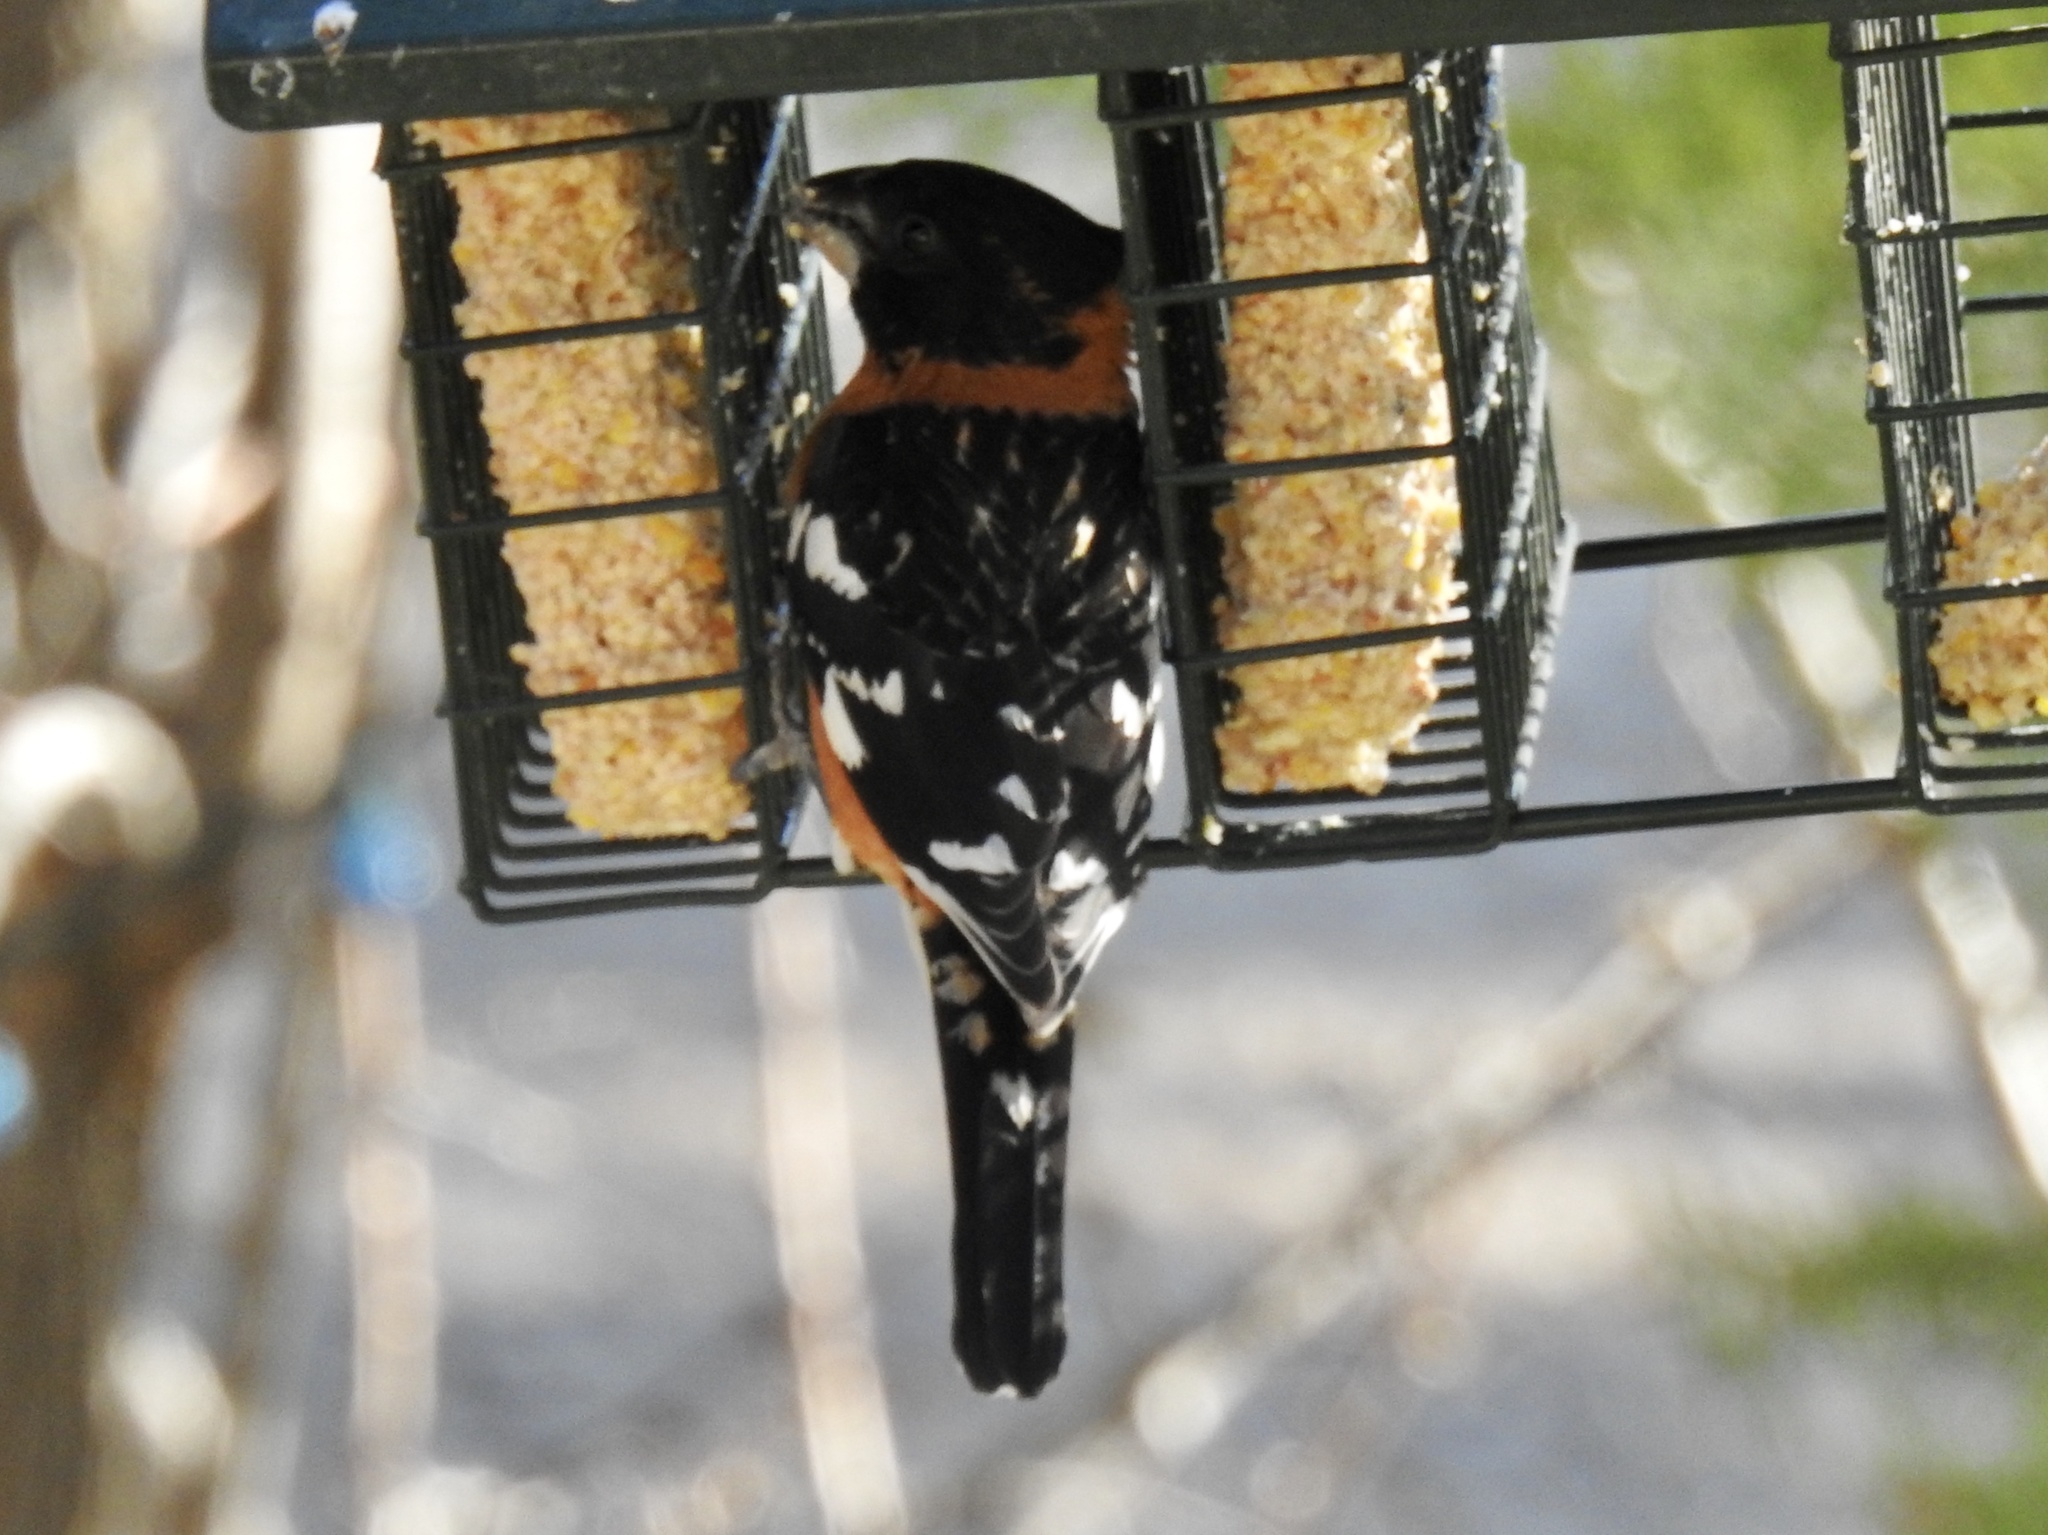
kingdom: Animalia
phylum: Chordata
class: Aves
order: Passeriformes
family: Cardinalidae
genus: Pheucticus
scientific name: Pheucticus melanocephalus
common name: Black-headed grosbeak
